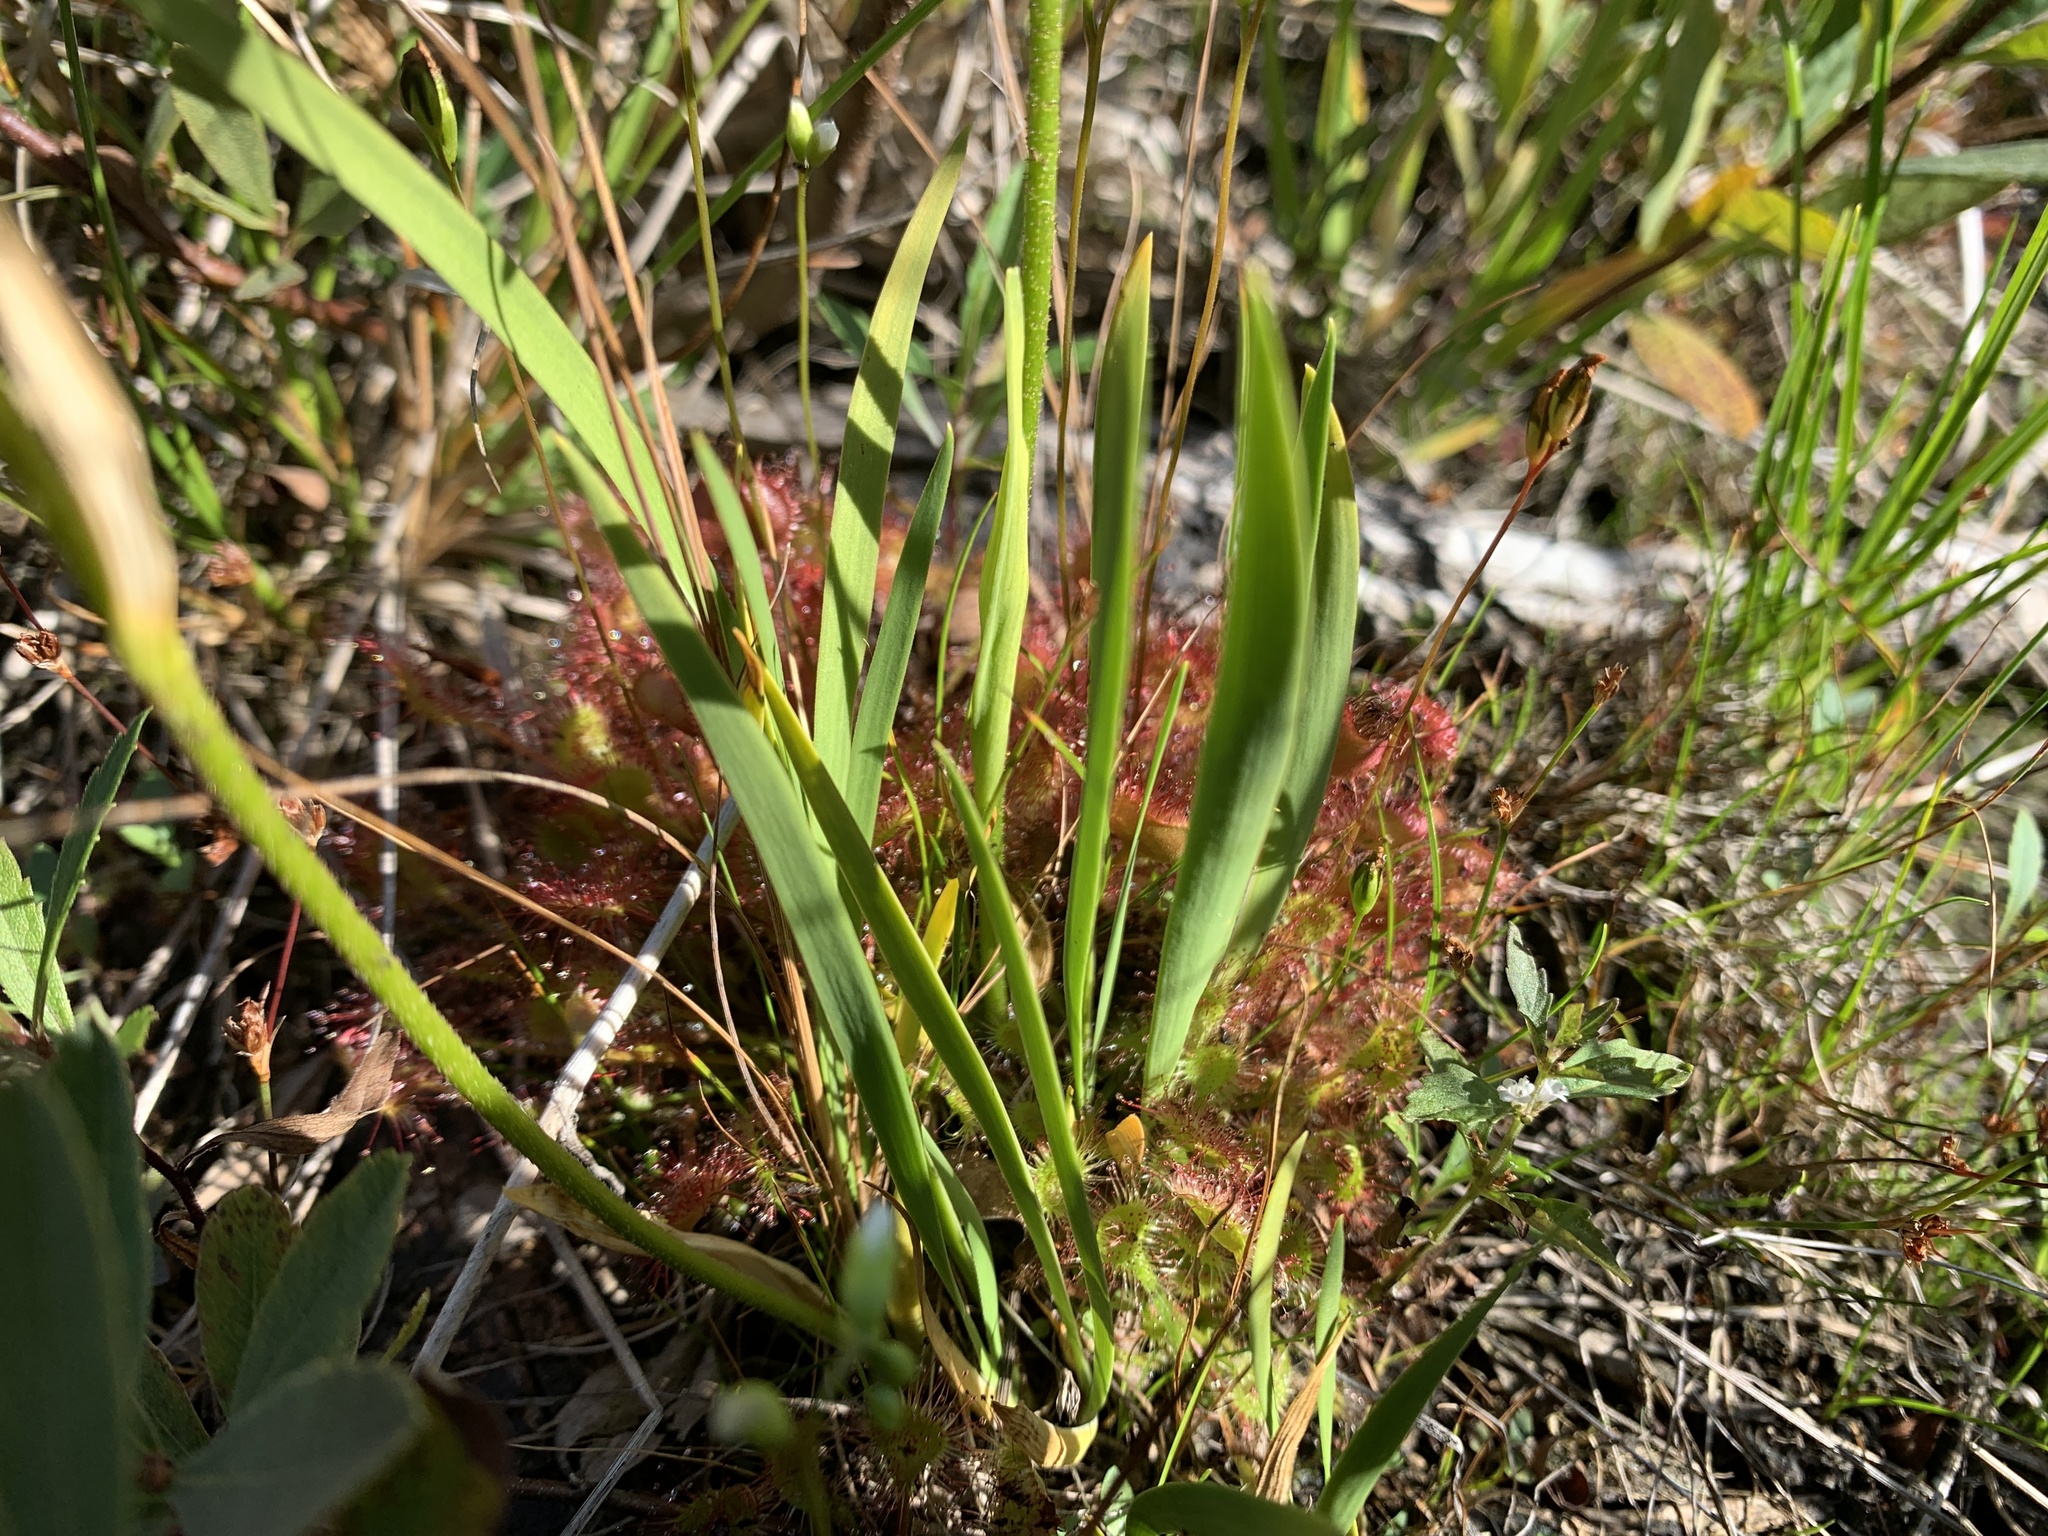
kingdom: Plantae
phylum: Tracheophyta
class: Liliopsida
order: Alismatales
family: Tofieldiaceae
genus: Triantha
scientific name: Triantha glutinosa
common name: Glutinous tofieldia
